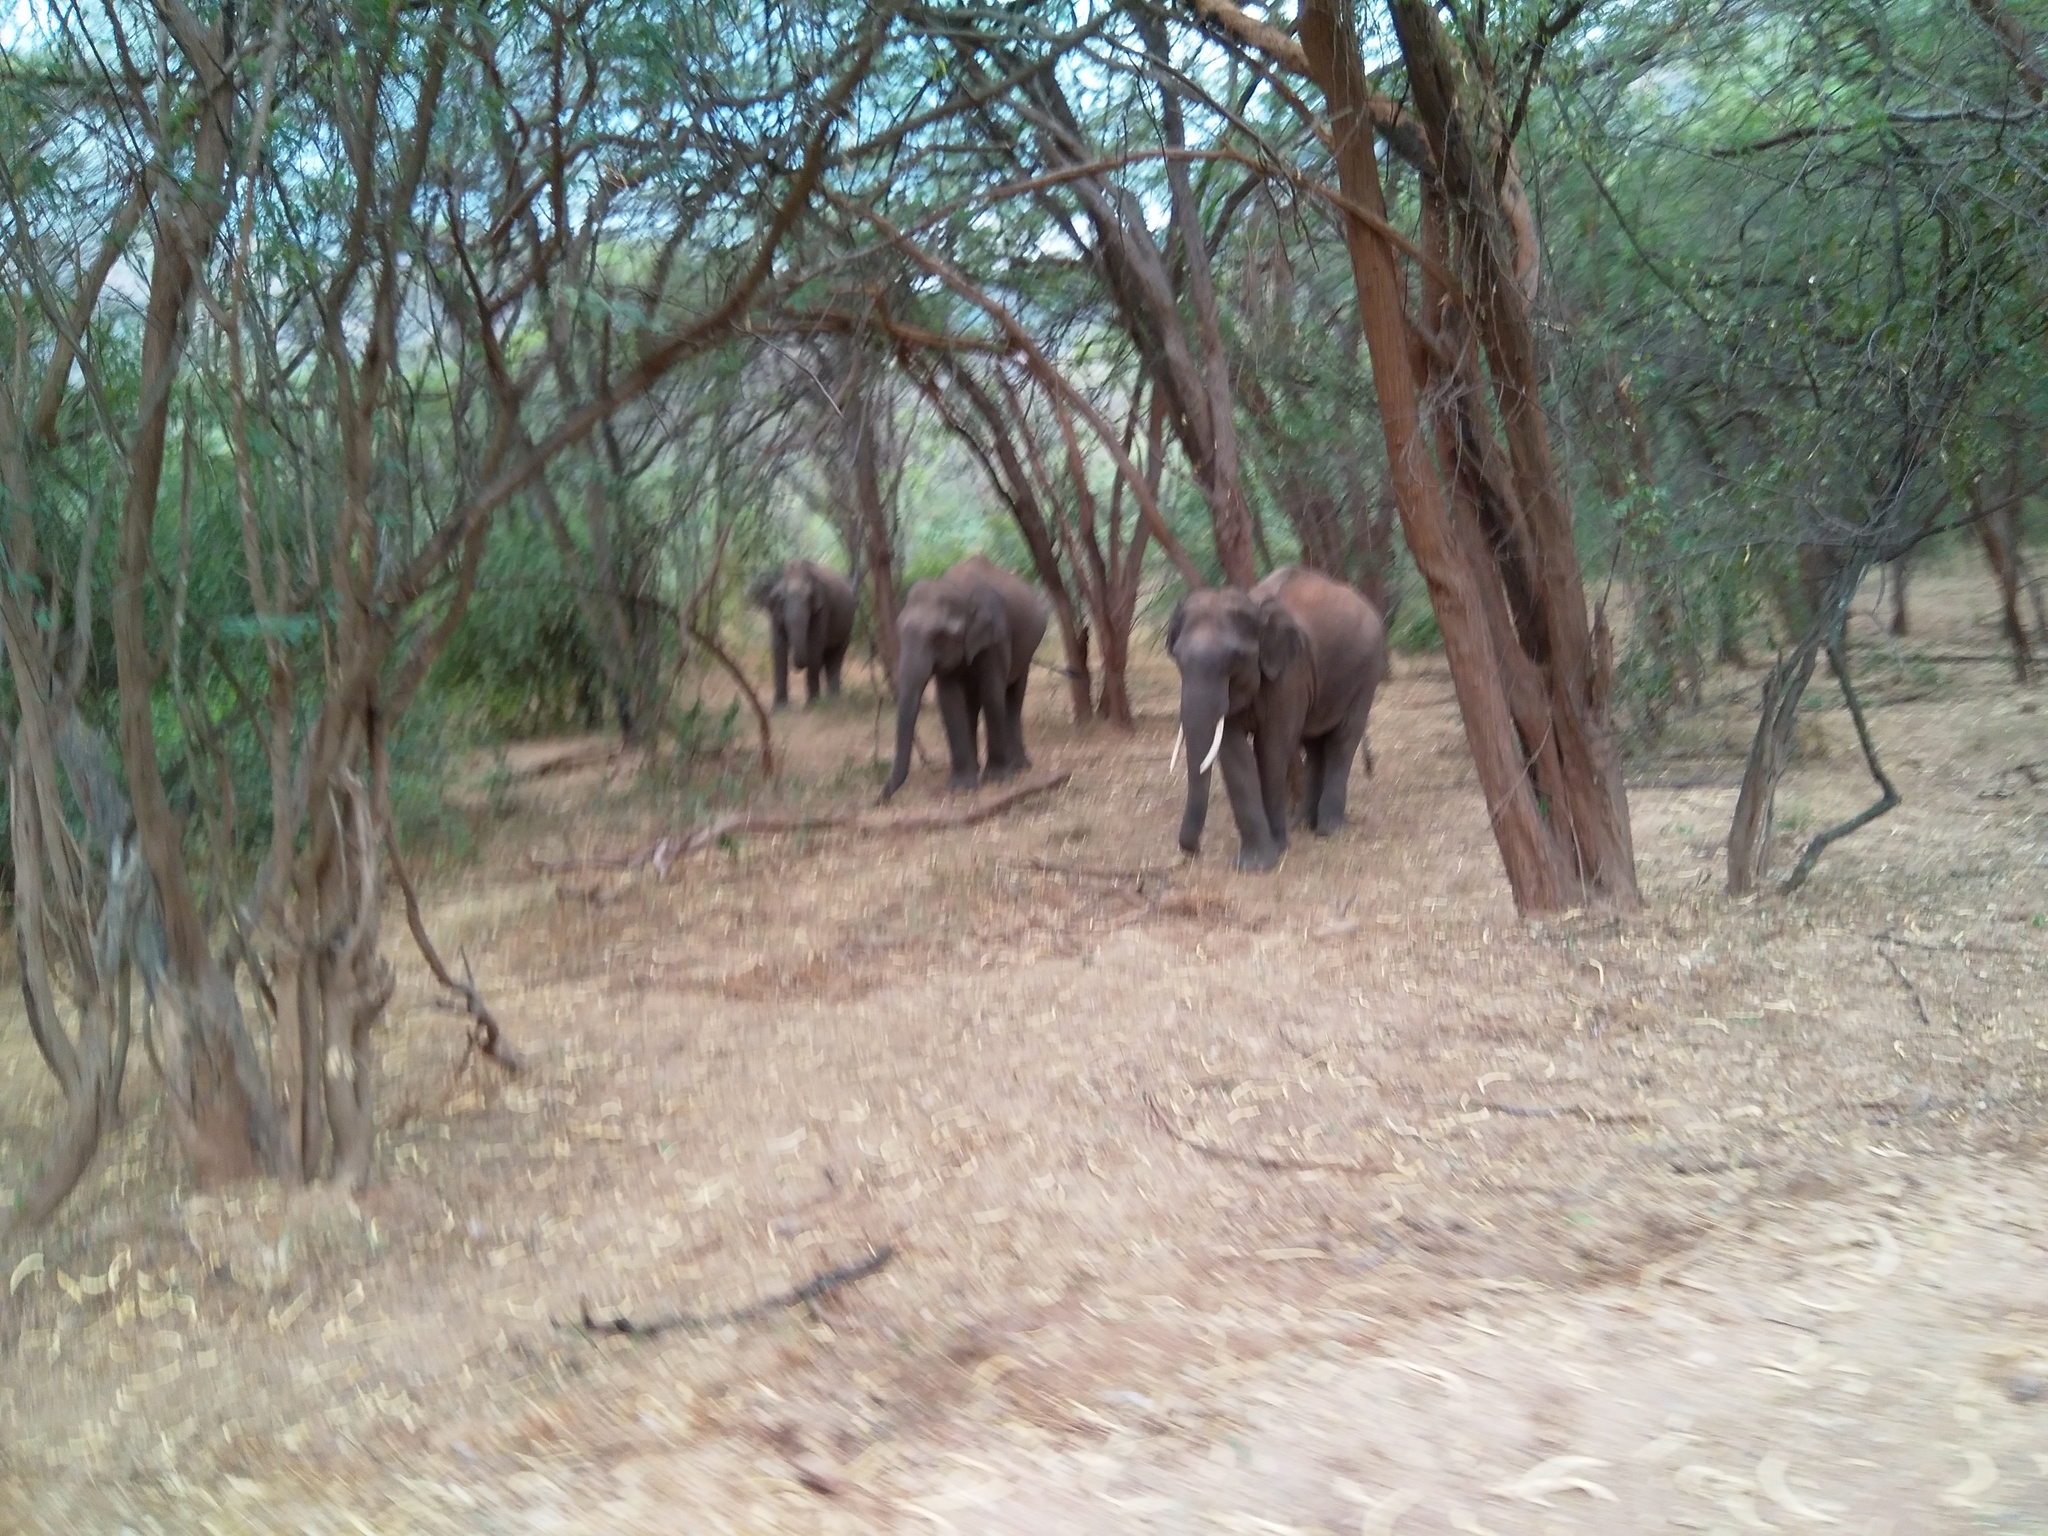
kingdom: Animalia
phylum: Chordata
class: Mammalia
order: Proboscidea
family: Elephantidae
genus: Elephas
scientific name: Elephas maximus
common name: Asian elephant
